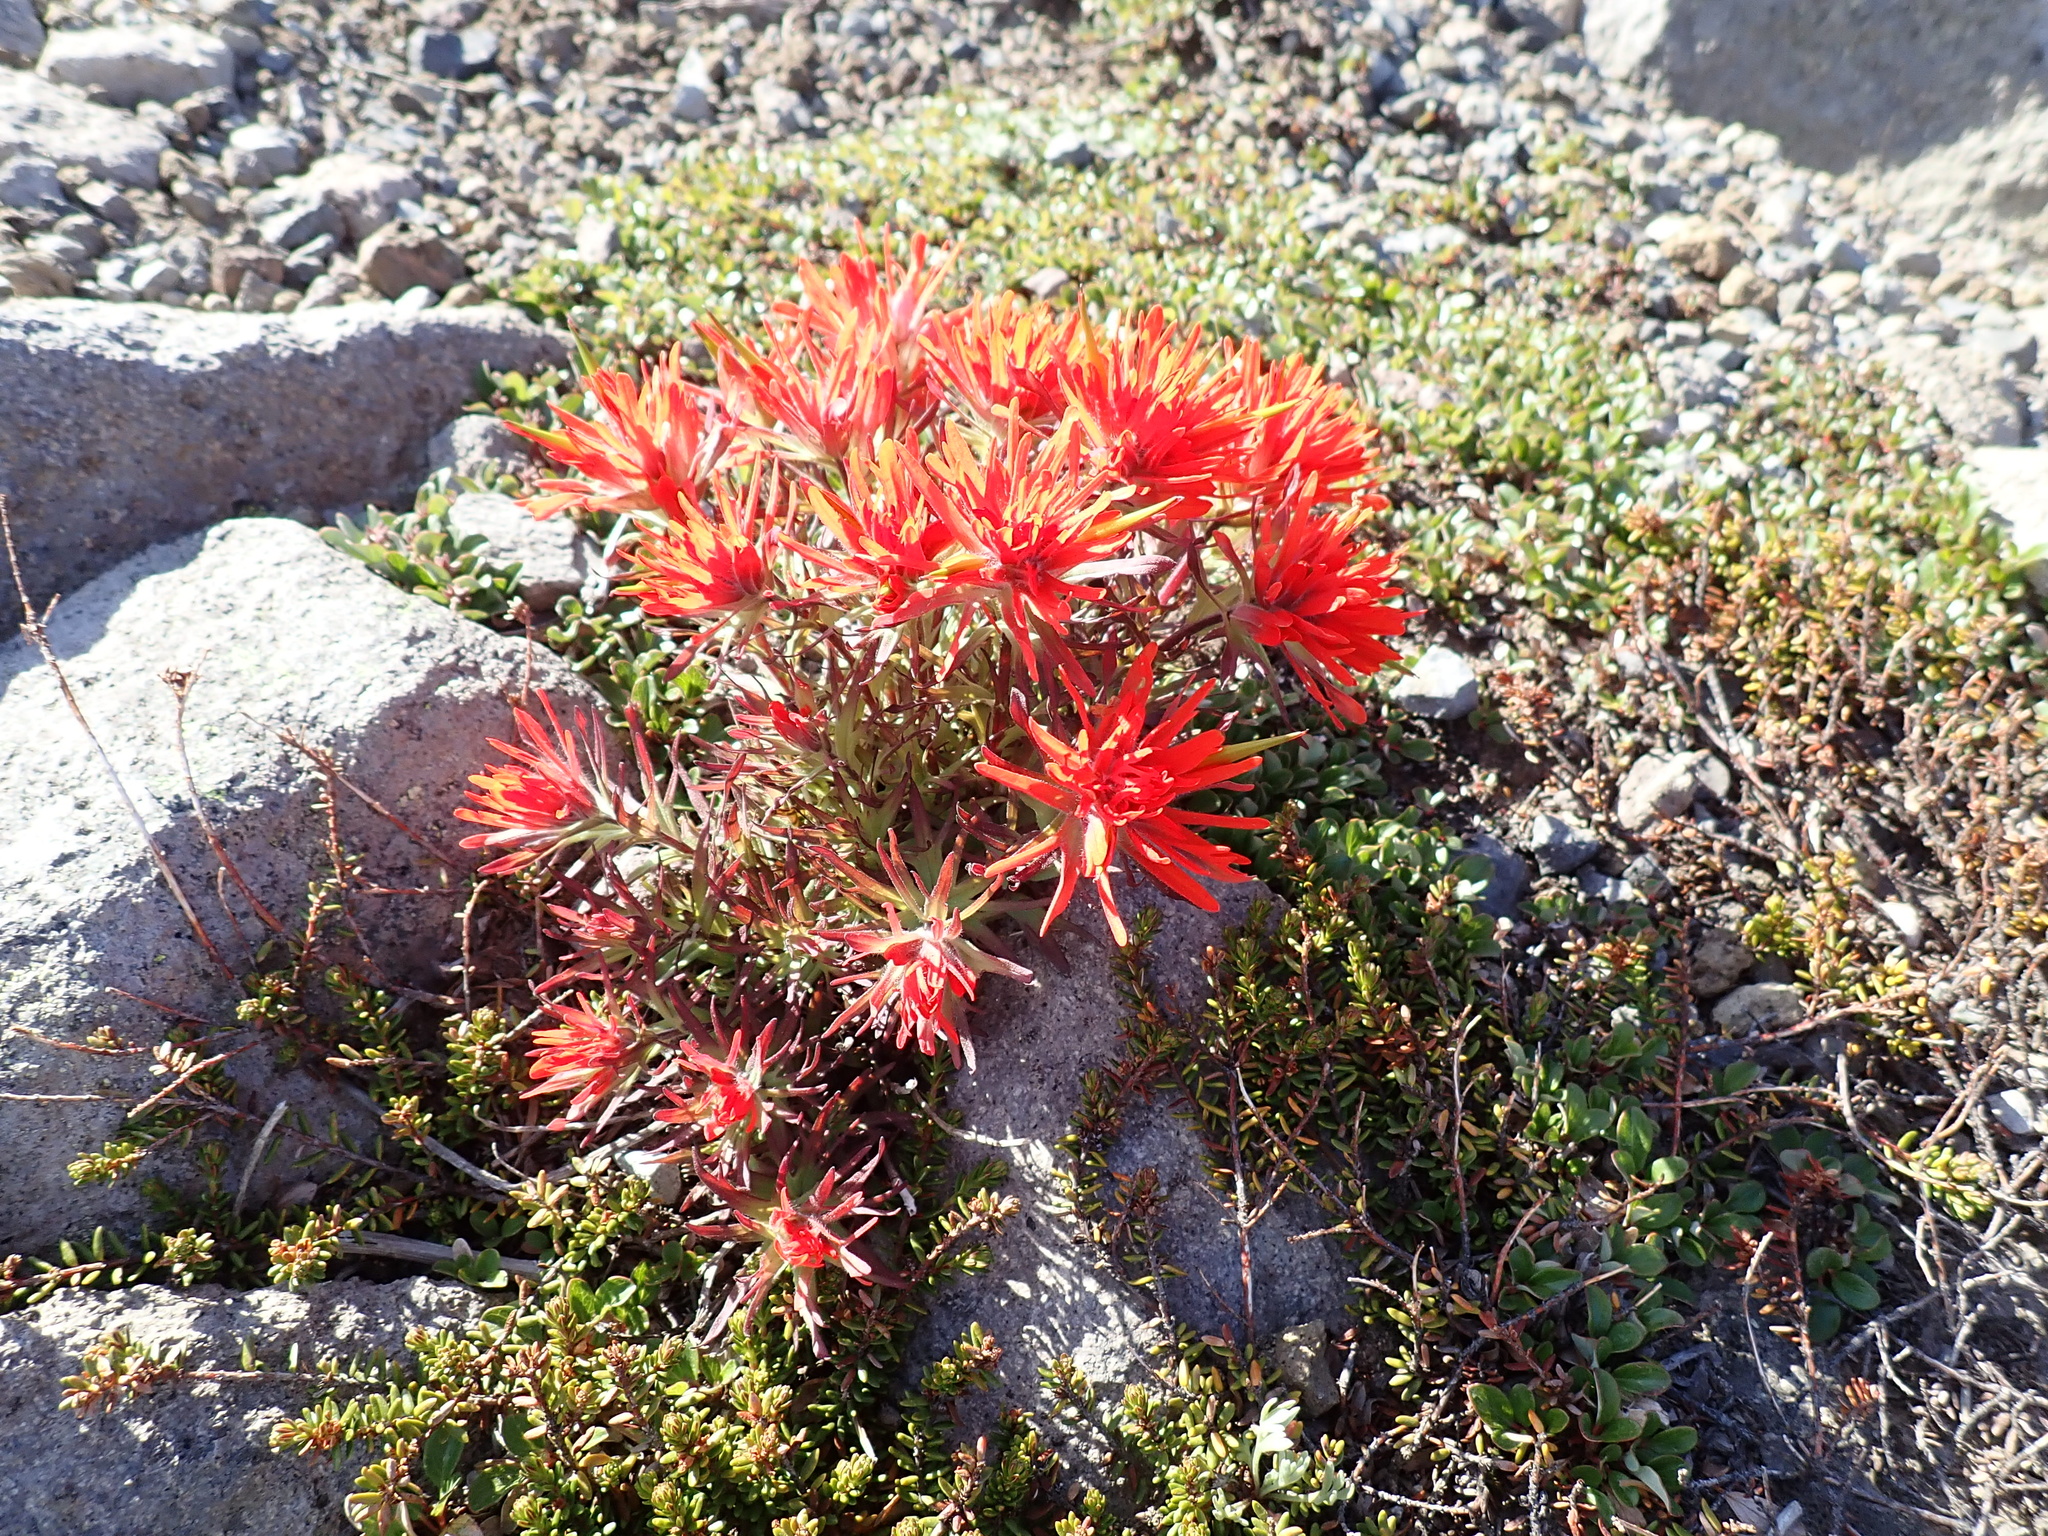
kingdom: Plantae
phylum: Tracheophyta
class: Magnoliopsida
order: Lamiales
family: Orobanchaceae
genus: Castilleja
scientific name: Castilleja rupicola
